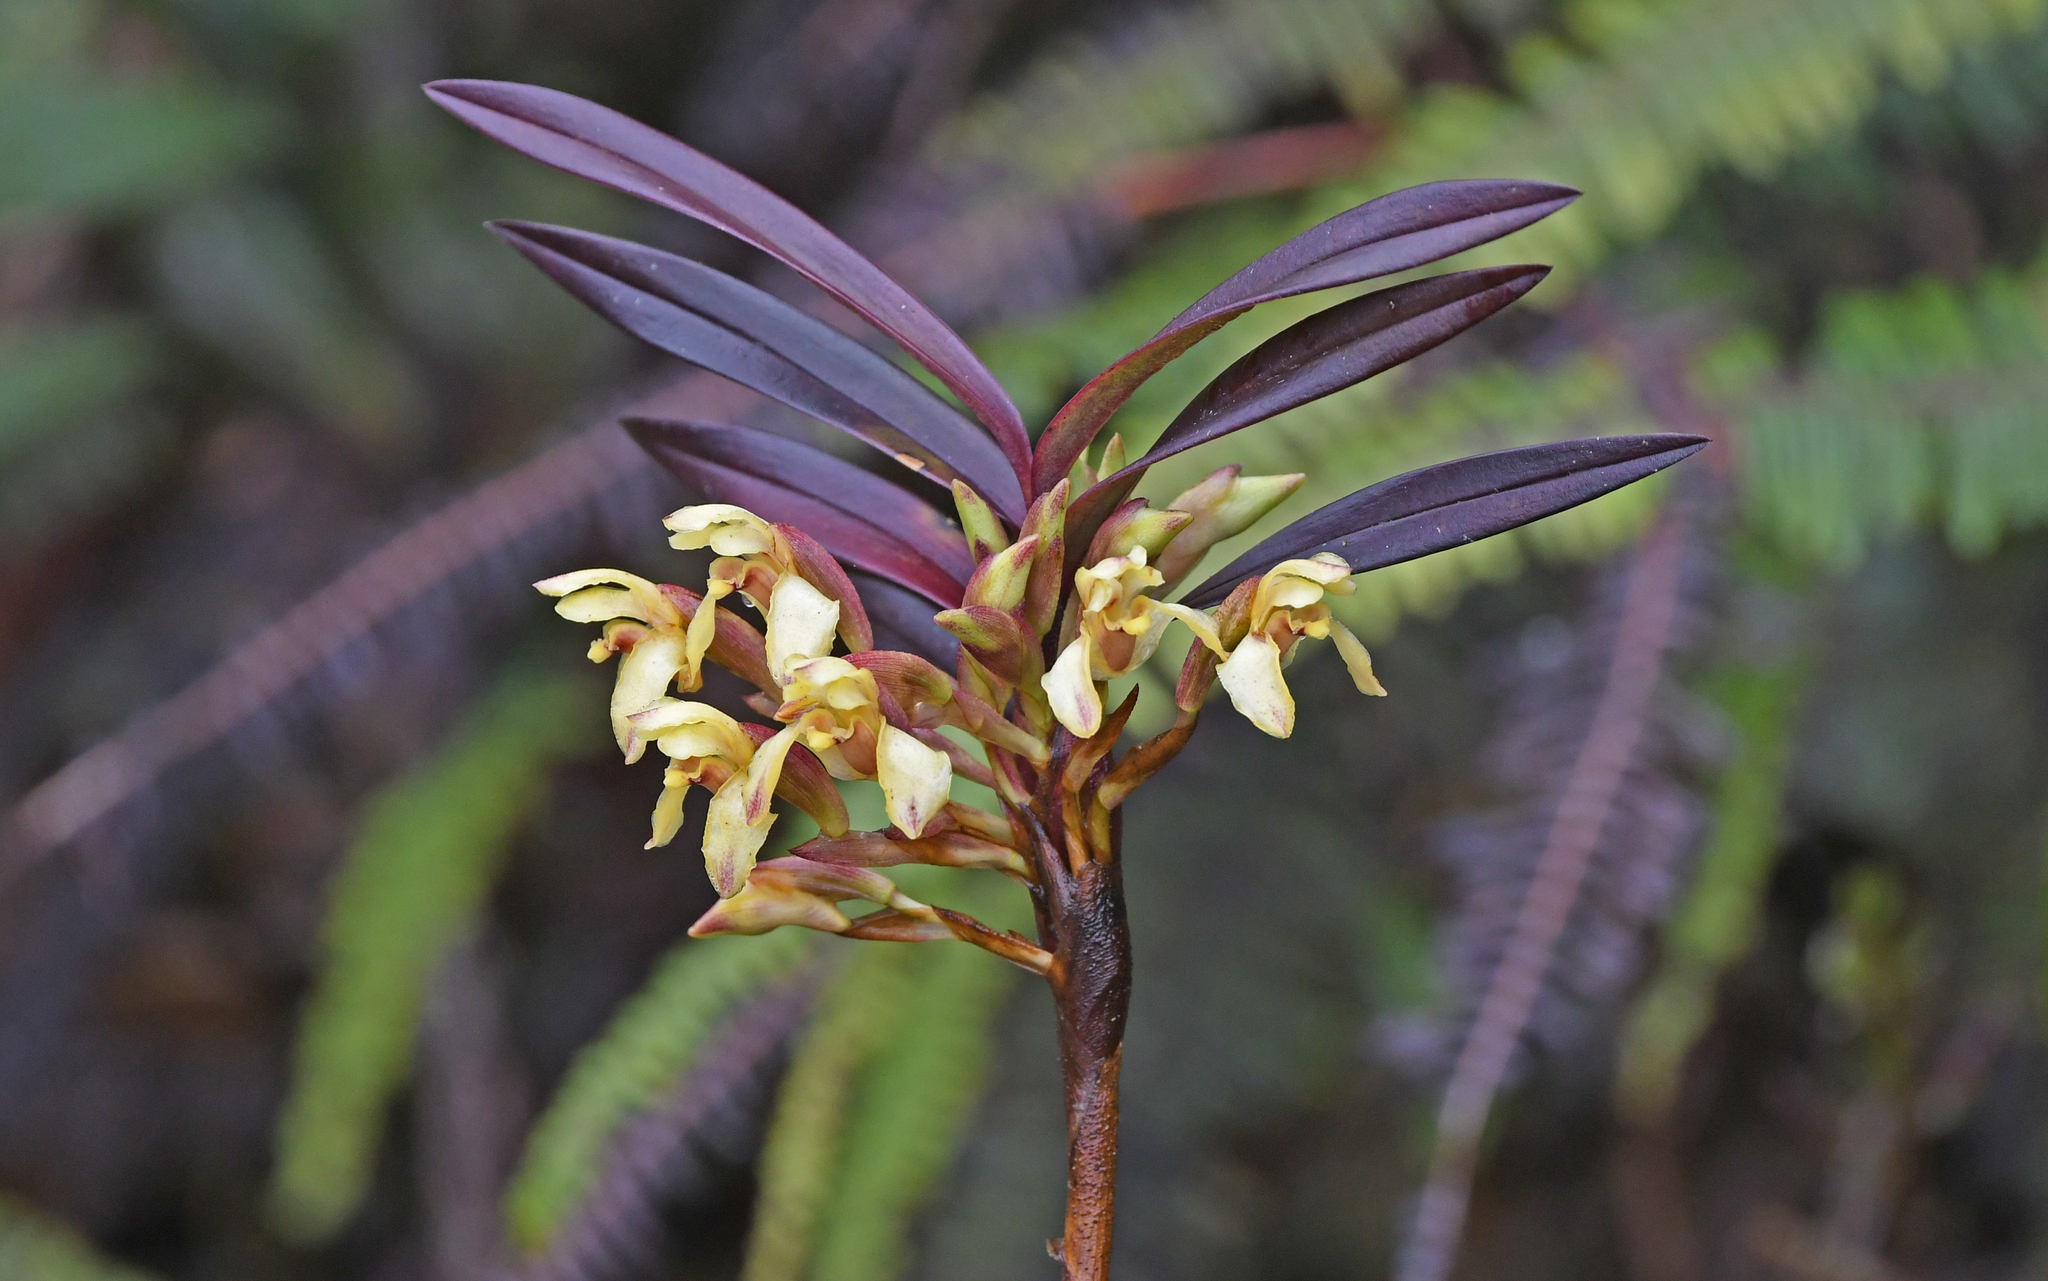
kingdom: Plantae
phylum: Tracheophyta
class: Liliopsida
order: Asparagales
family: Orchidaceae
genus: Maxillaria
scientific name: Maxillaria embreei
